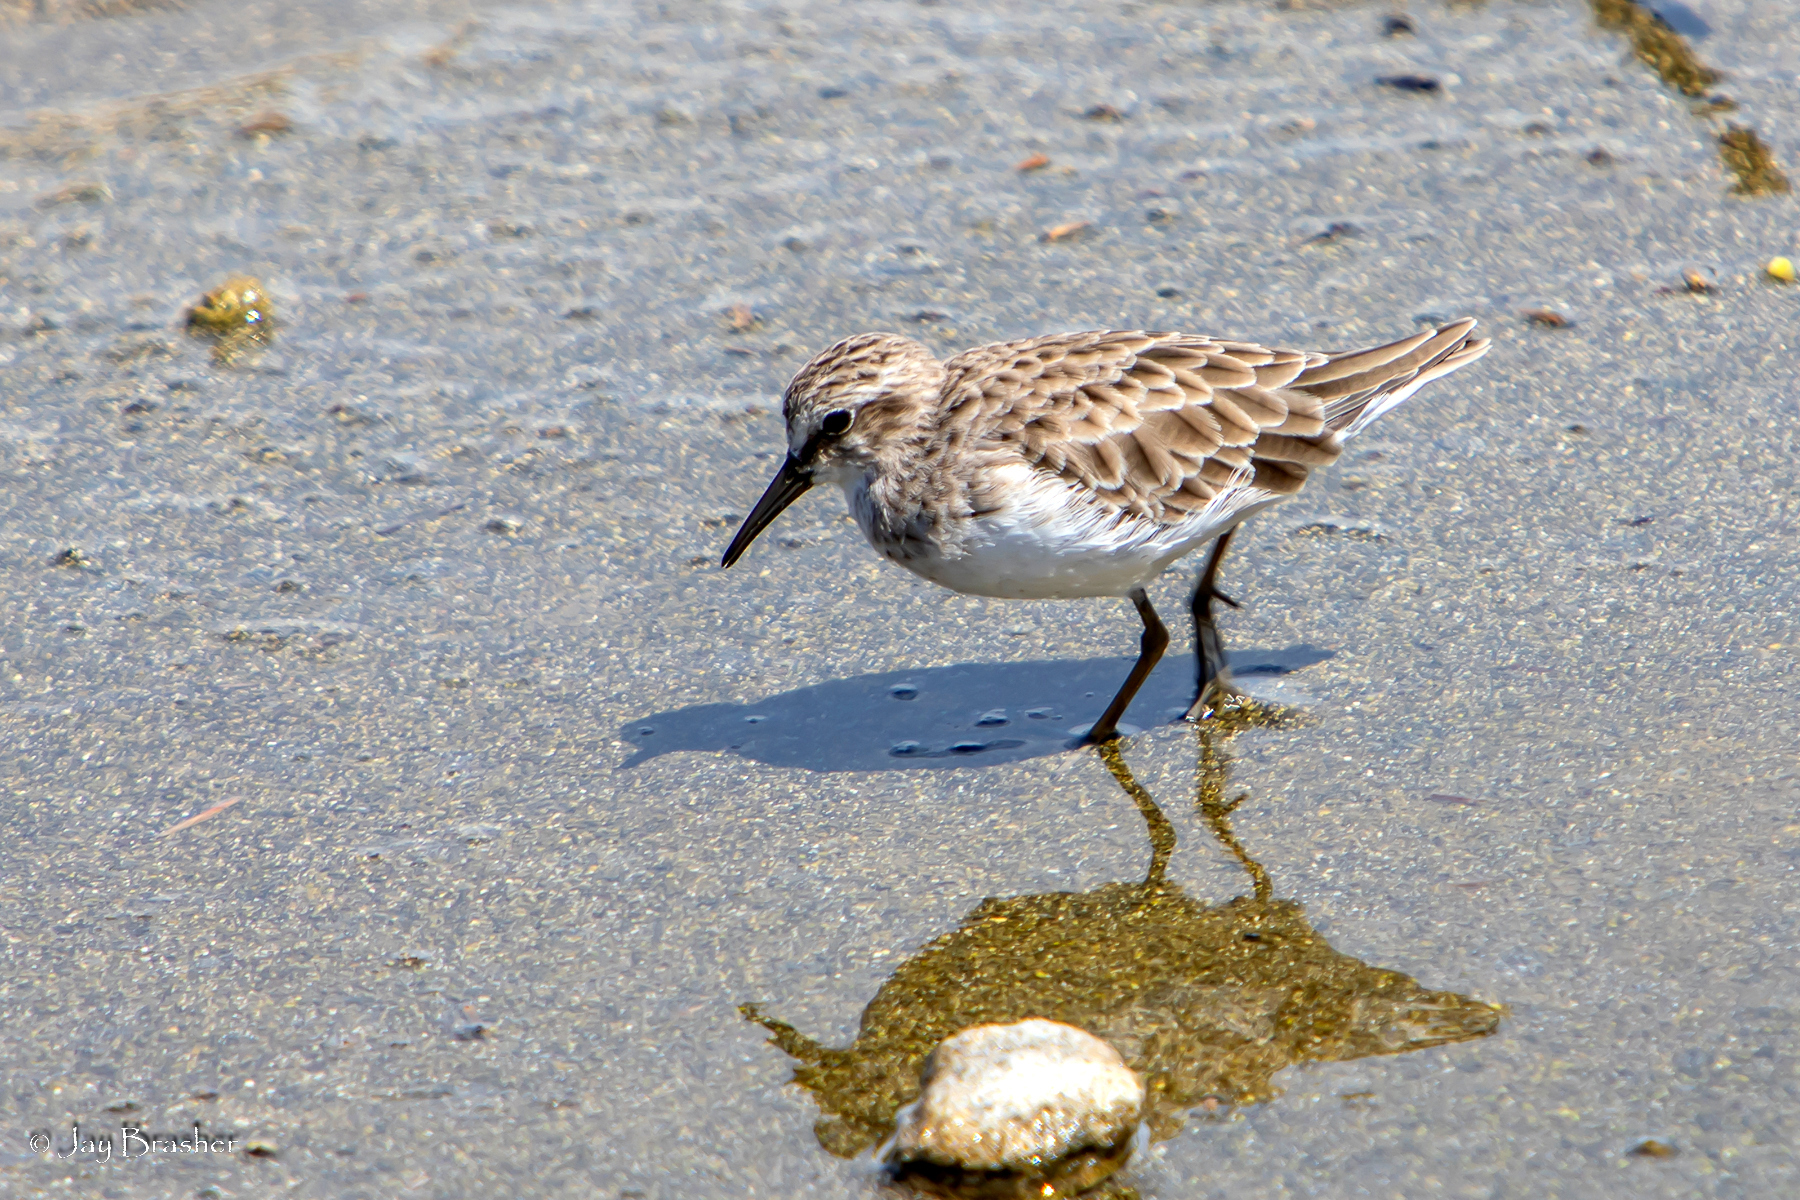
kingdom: Animalia
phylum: Chordata
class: Aves
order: Charadriiformes
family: Scolopacidae
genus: Calidris
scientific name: Calidris pusilla
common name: Semipalmated sandpiper
